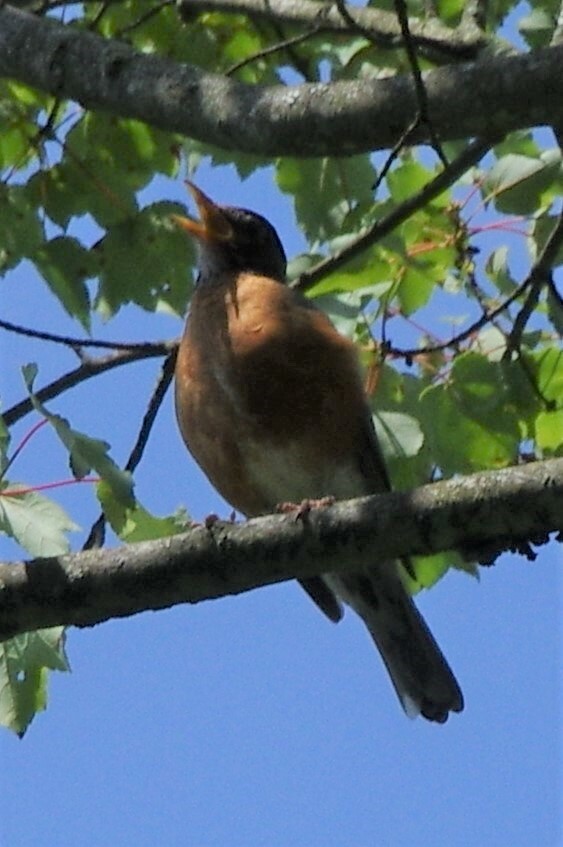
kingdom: Animalia
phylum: Chordata
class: Aves
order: Passeriformes
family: Turdidae
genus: Turdus
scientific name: Turdus migratorius
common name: American robin
